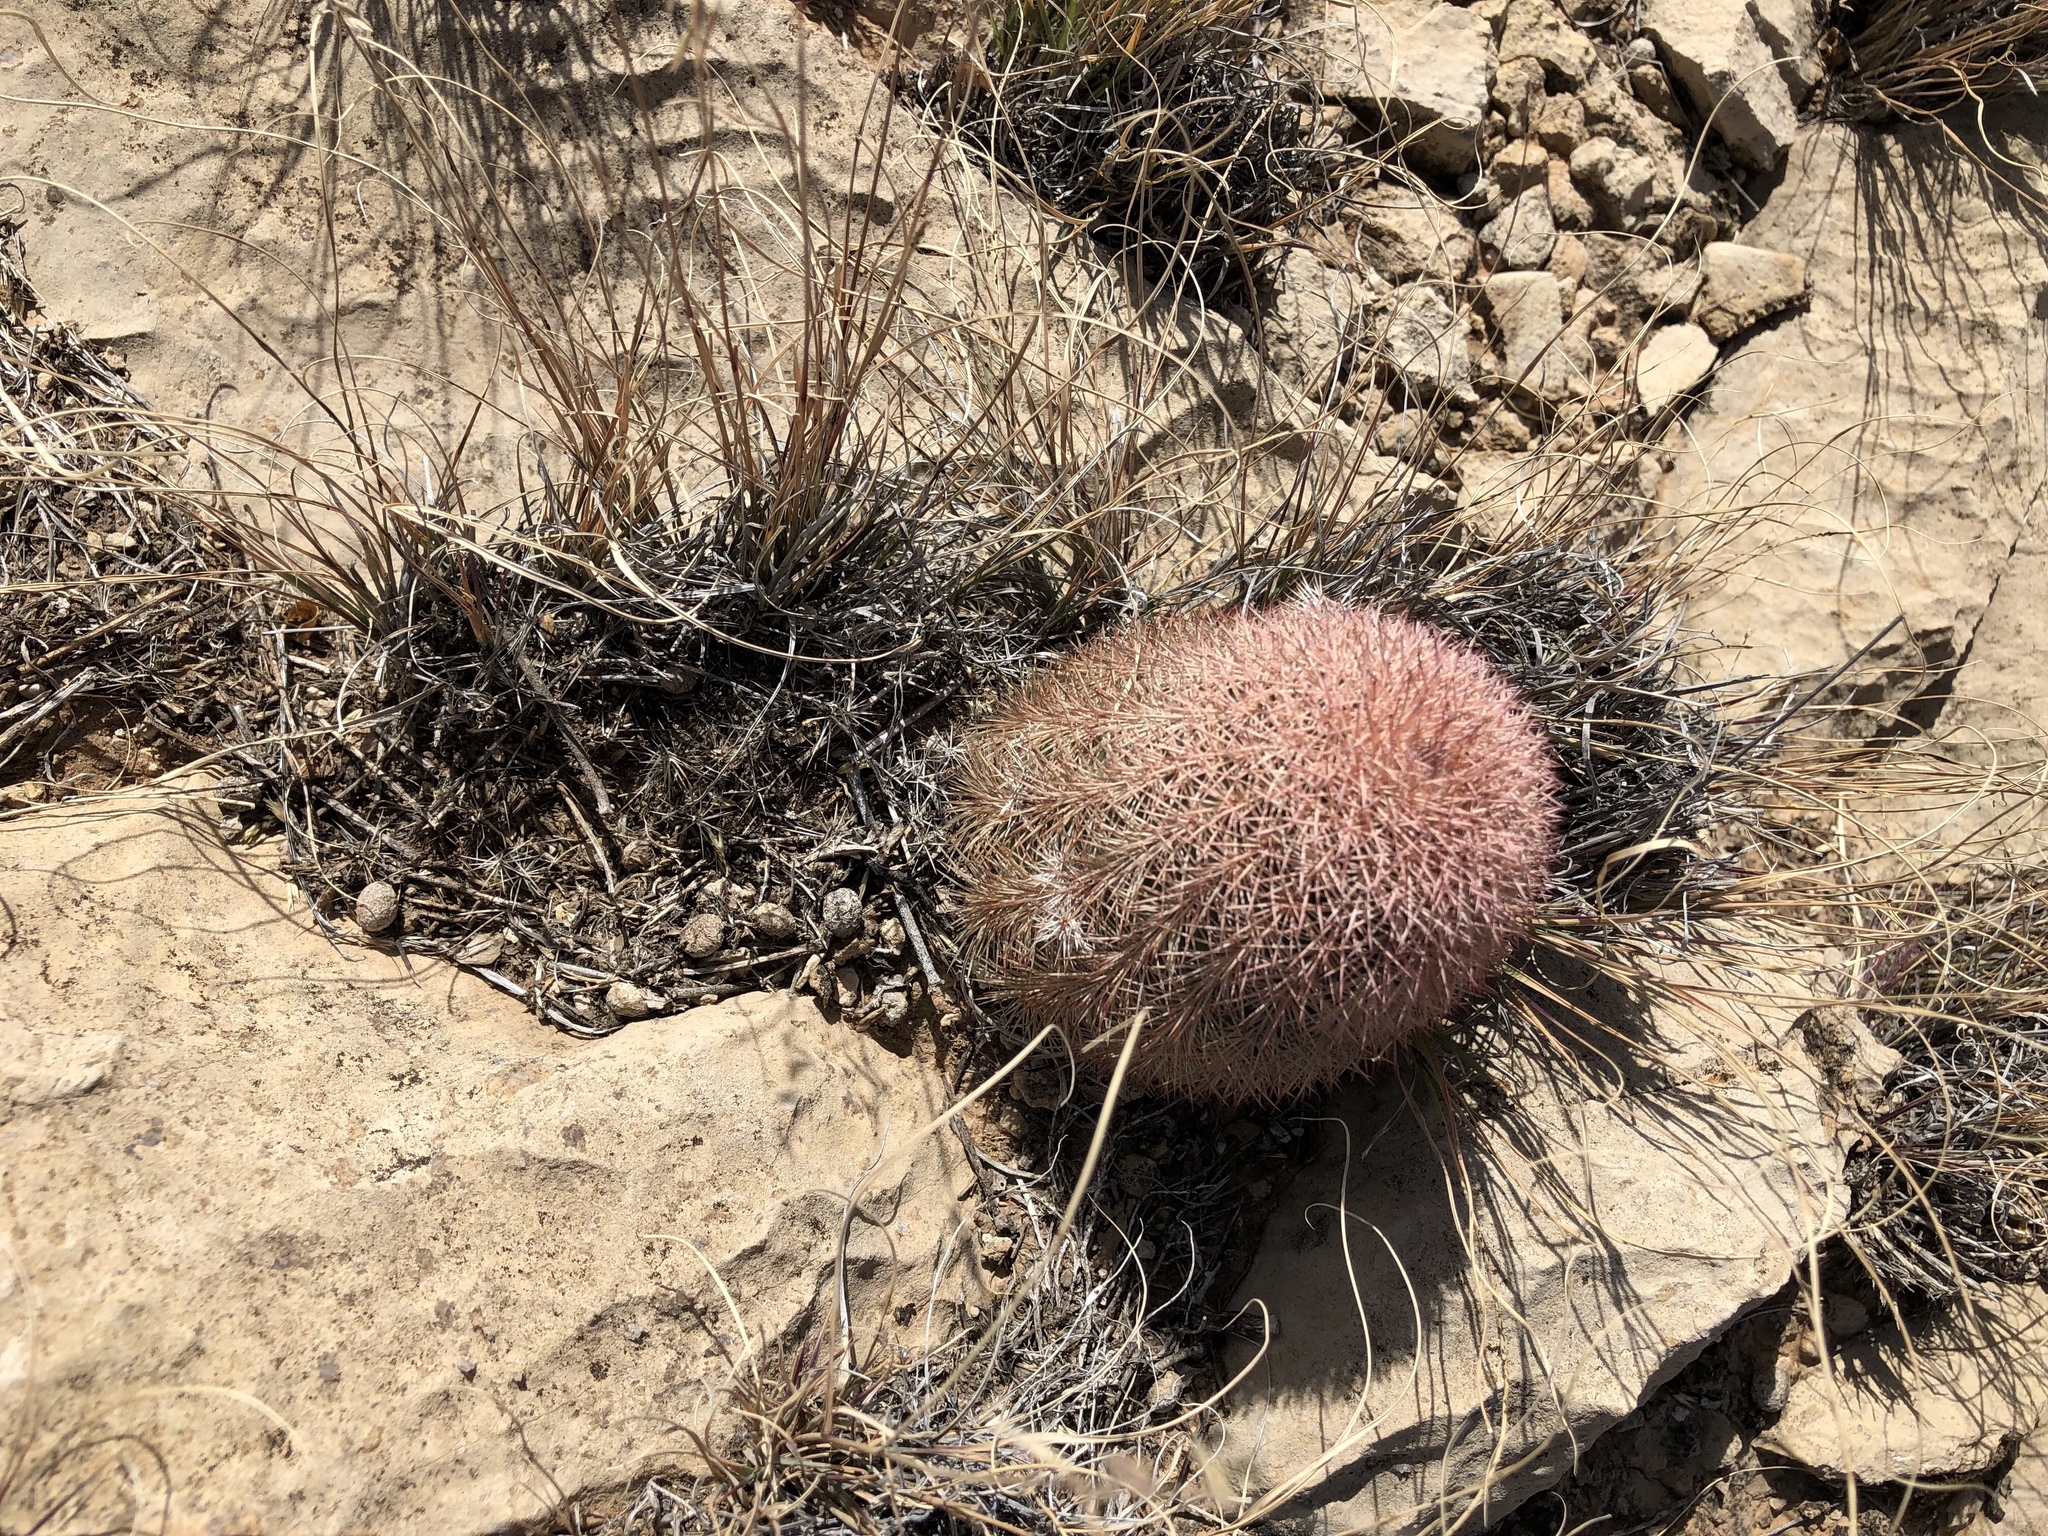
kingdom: Plantae
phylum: Tracheophyta
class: Magnoliopsida
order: Caryophyllales
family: Cactaceae
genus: Echinocereus
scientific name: Echinocereus dasyacanthus
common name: Spiny hedgehog cactus
